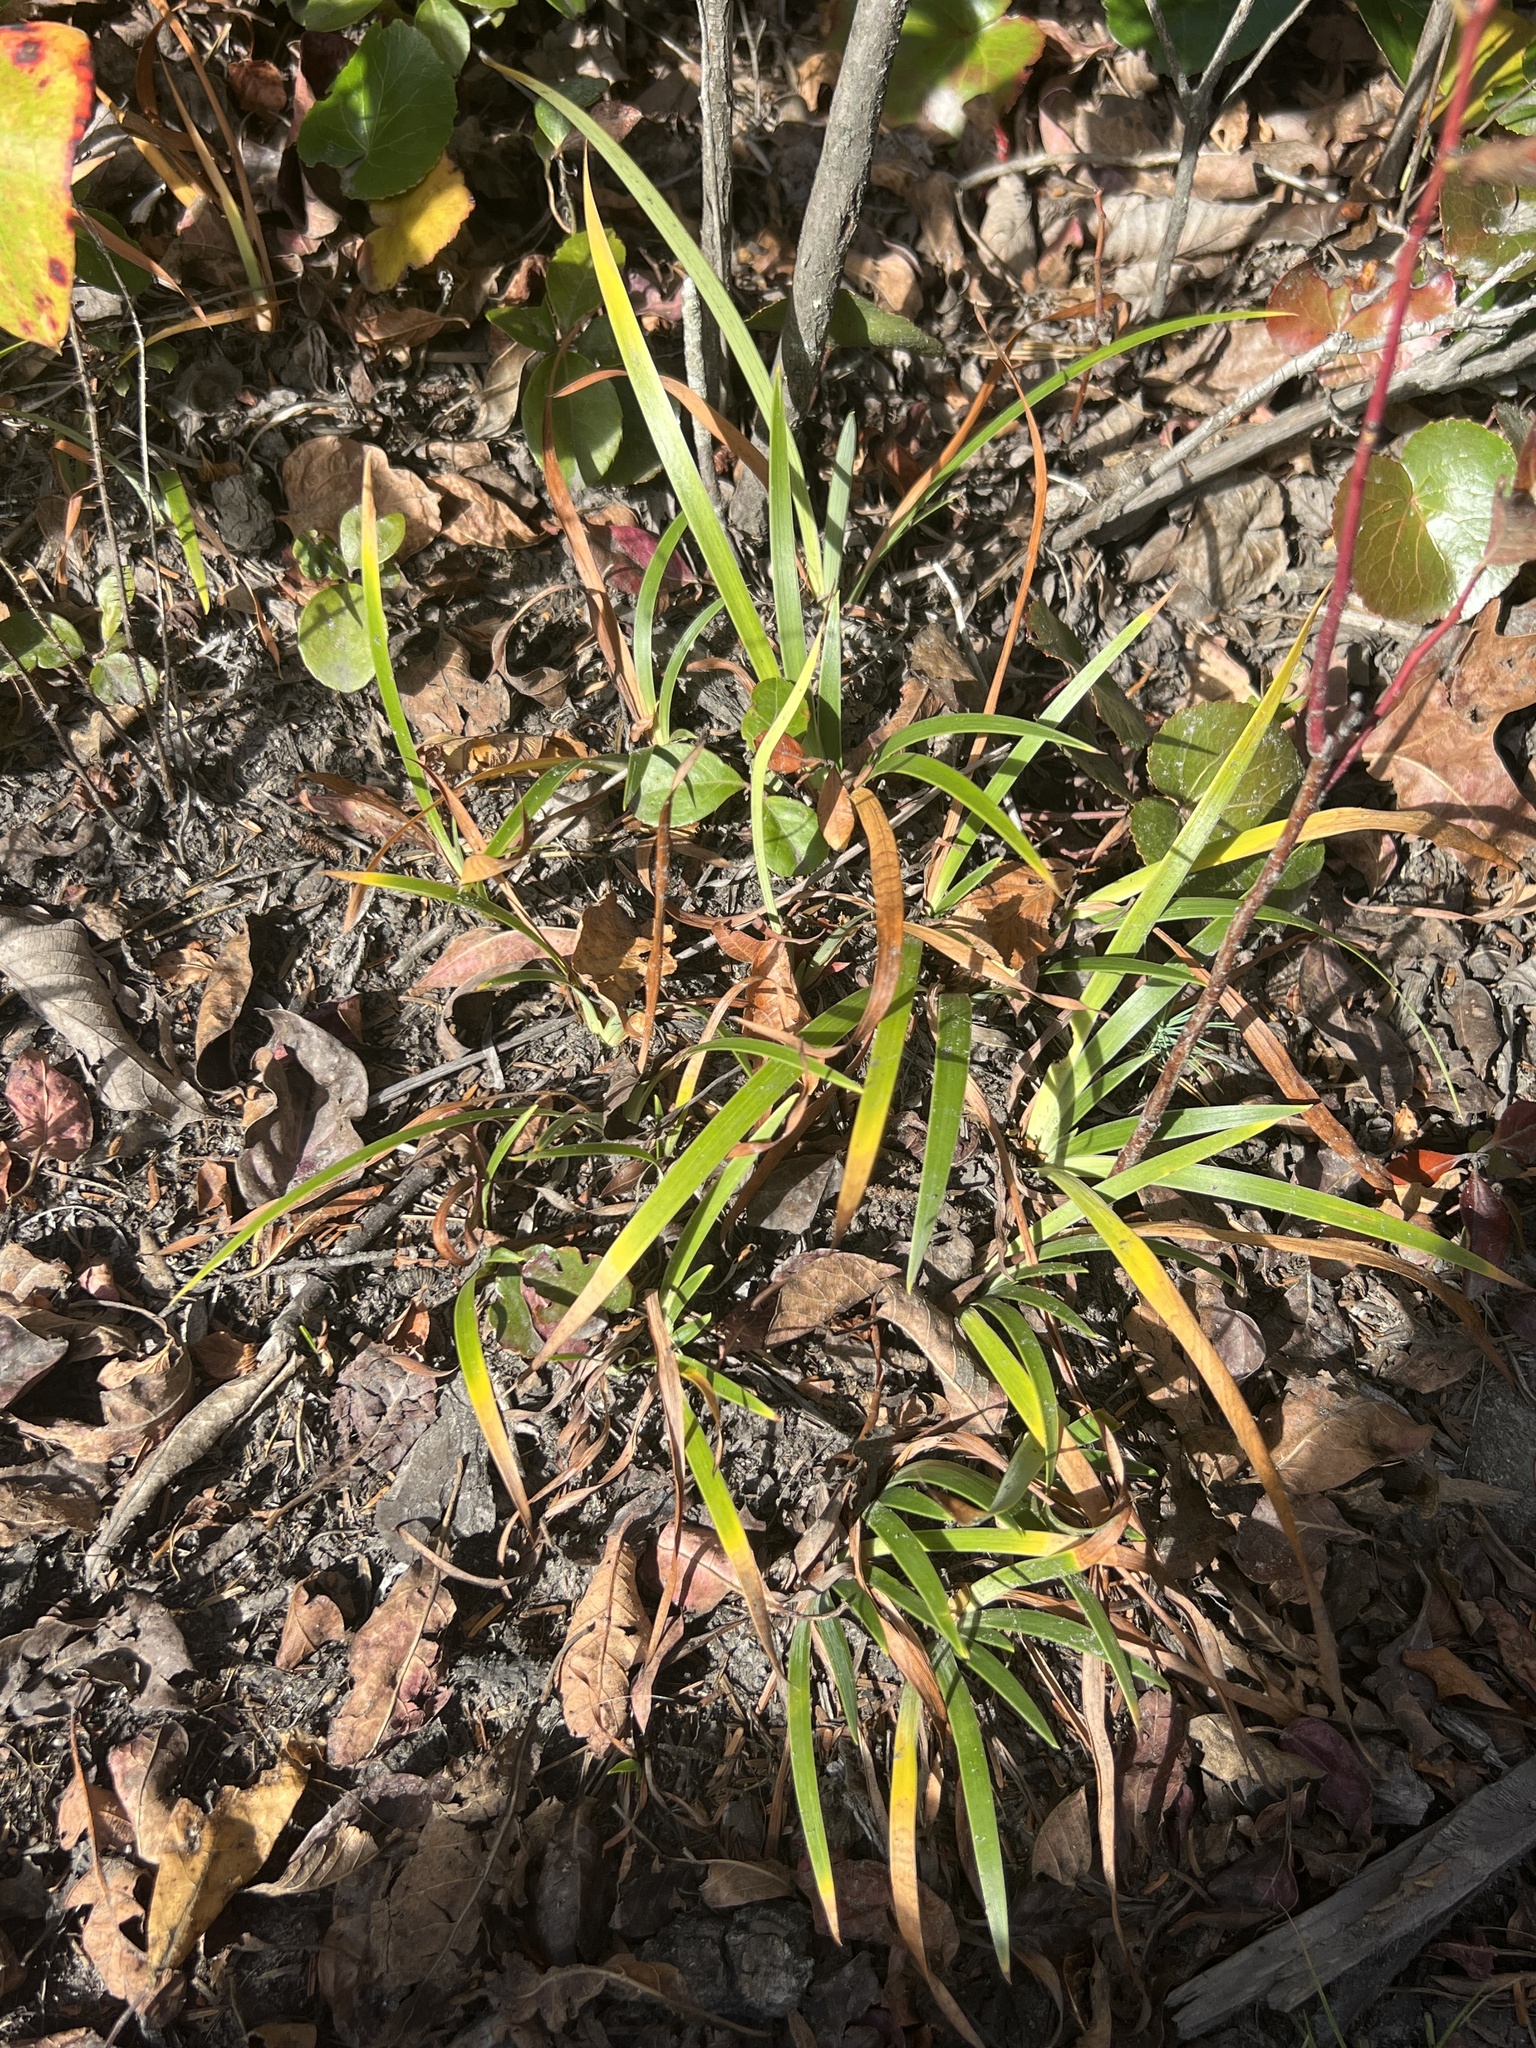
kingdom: Plantae
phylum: Tracheophyta
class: Liliopsida
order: Asparagales
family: Iridaceae
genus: Iris
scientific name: Iris verna
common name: Dwarf iris
